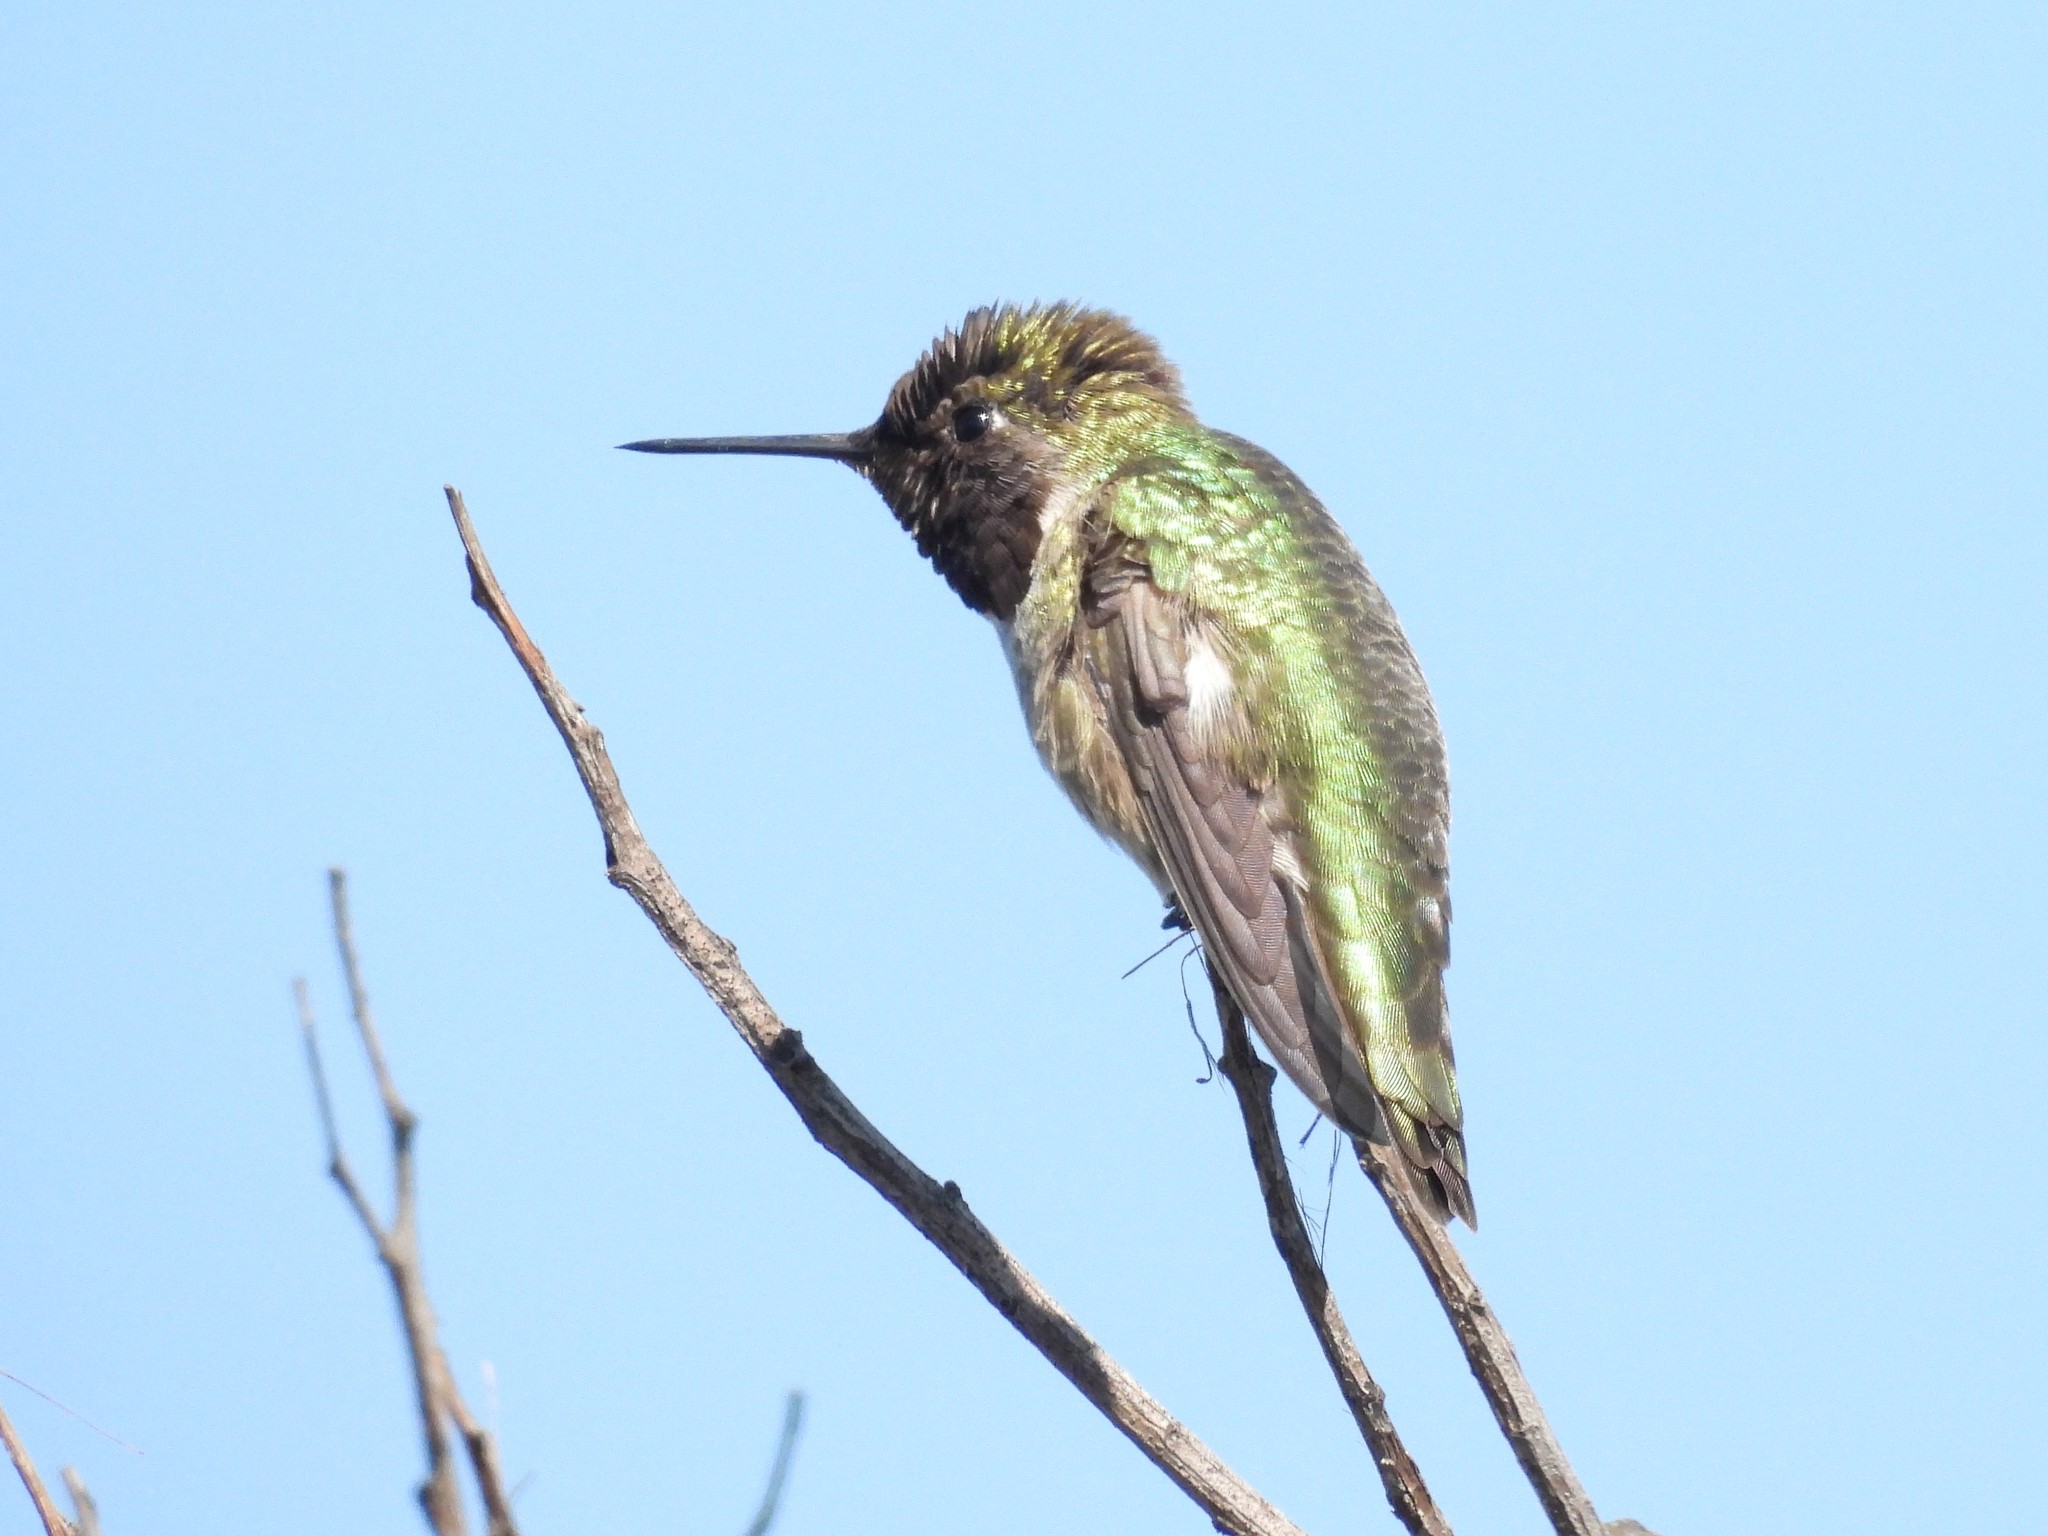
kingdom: Animalia
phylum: Chordata
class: Aves
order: Apodiformes
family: Trochilidae
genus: Calypte
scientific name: Calypte anna
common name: Anna's hummingbird
